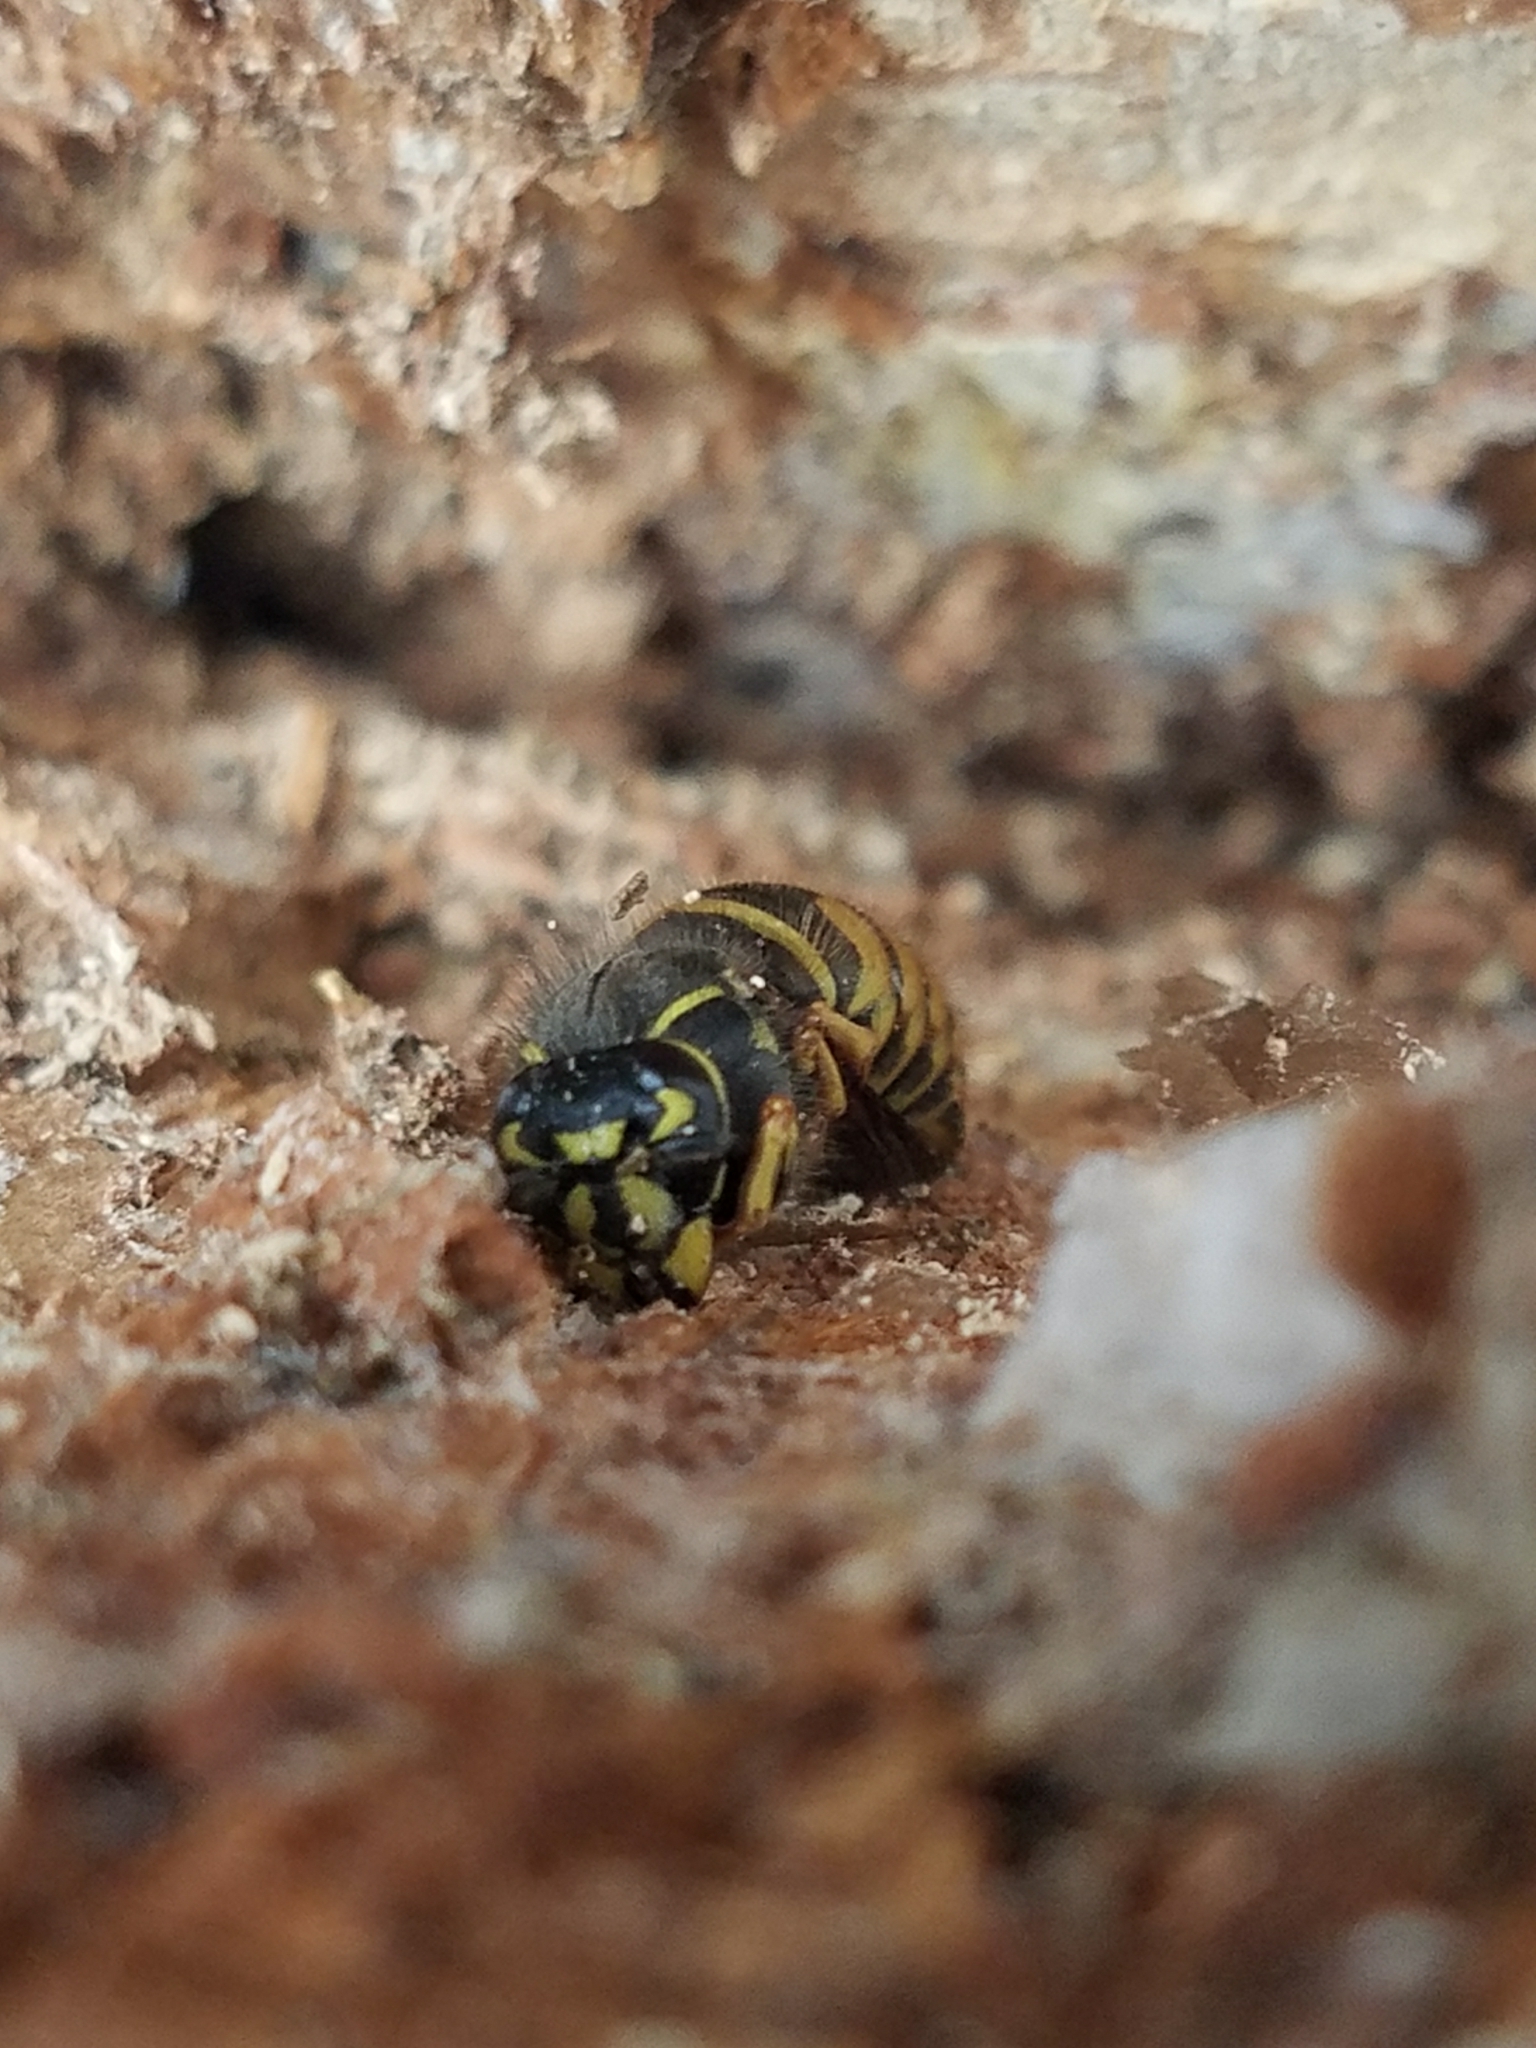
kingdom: Animalia
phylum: Arthropoda
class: Insecta
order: Hymenoptera
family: Vespidae
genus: Vespula
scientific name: Vespula alascensis
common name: Alaska yellowjacket
